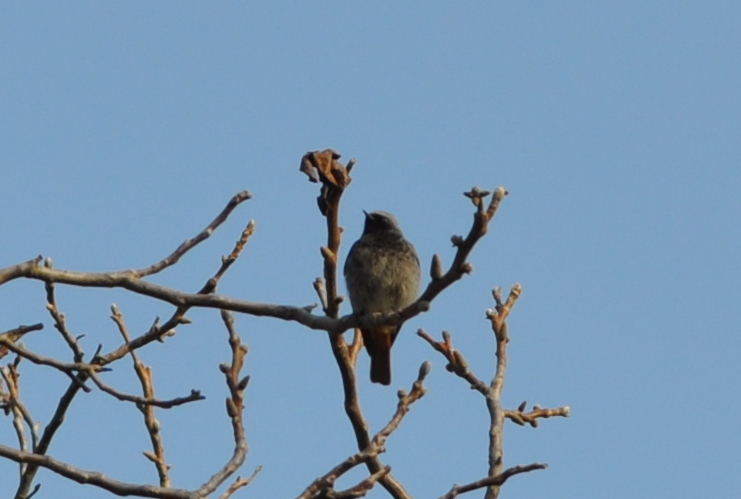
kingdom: Animalia
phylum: Chordata
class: Aves
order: Passeriformes
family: Muscicapidae
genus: Phoenicurus
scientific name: Phoenicurus ochruros
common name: Black redstart
